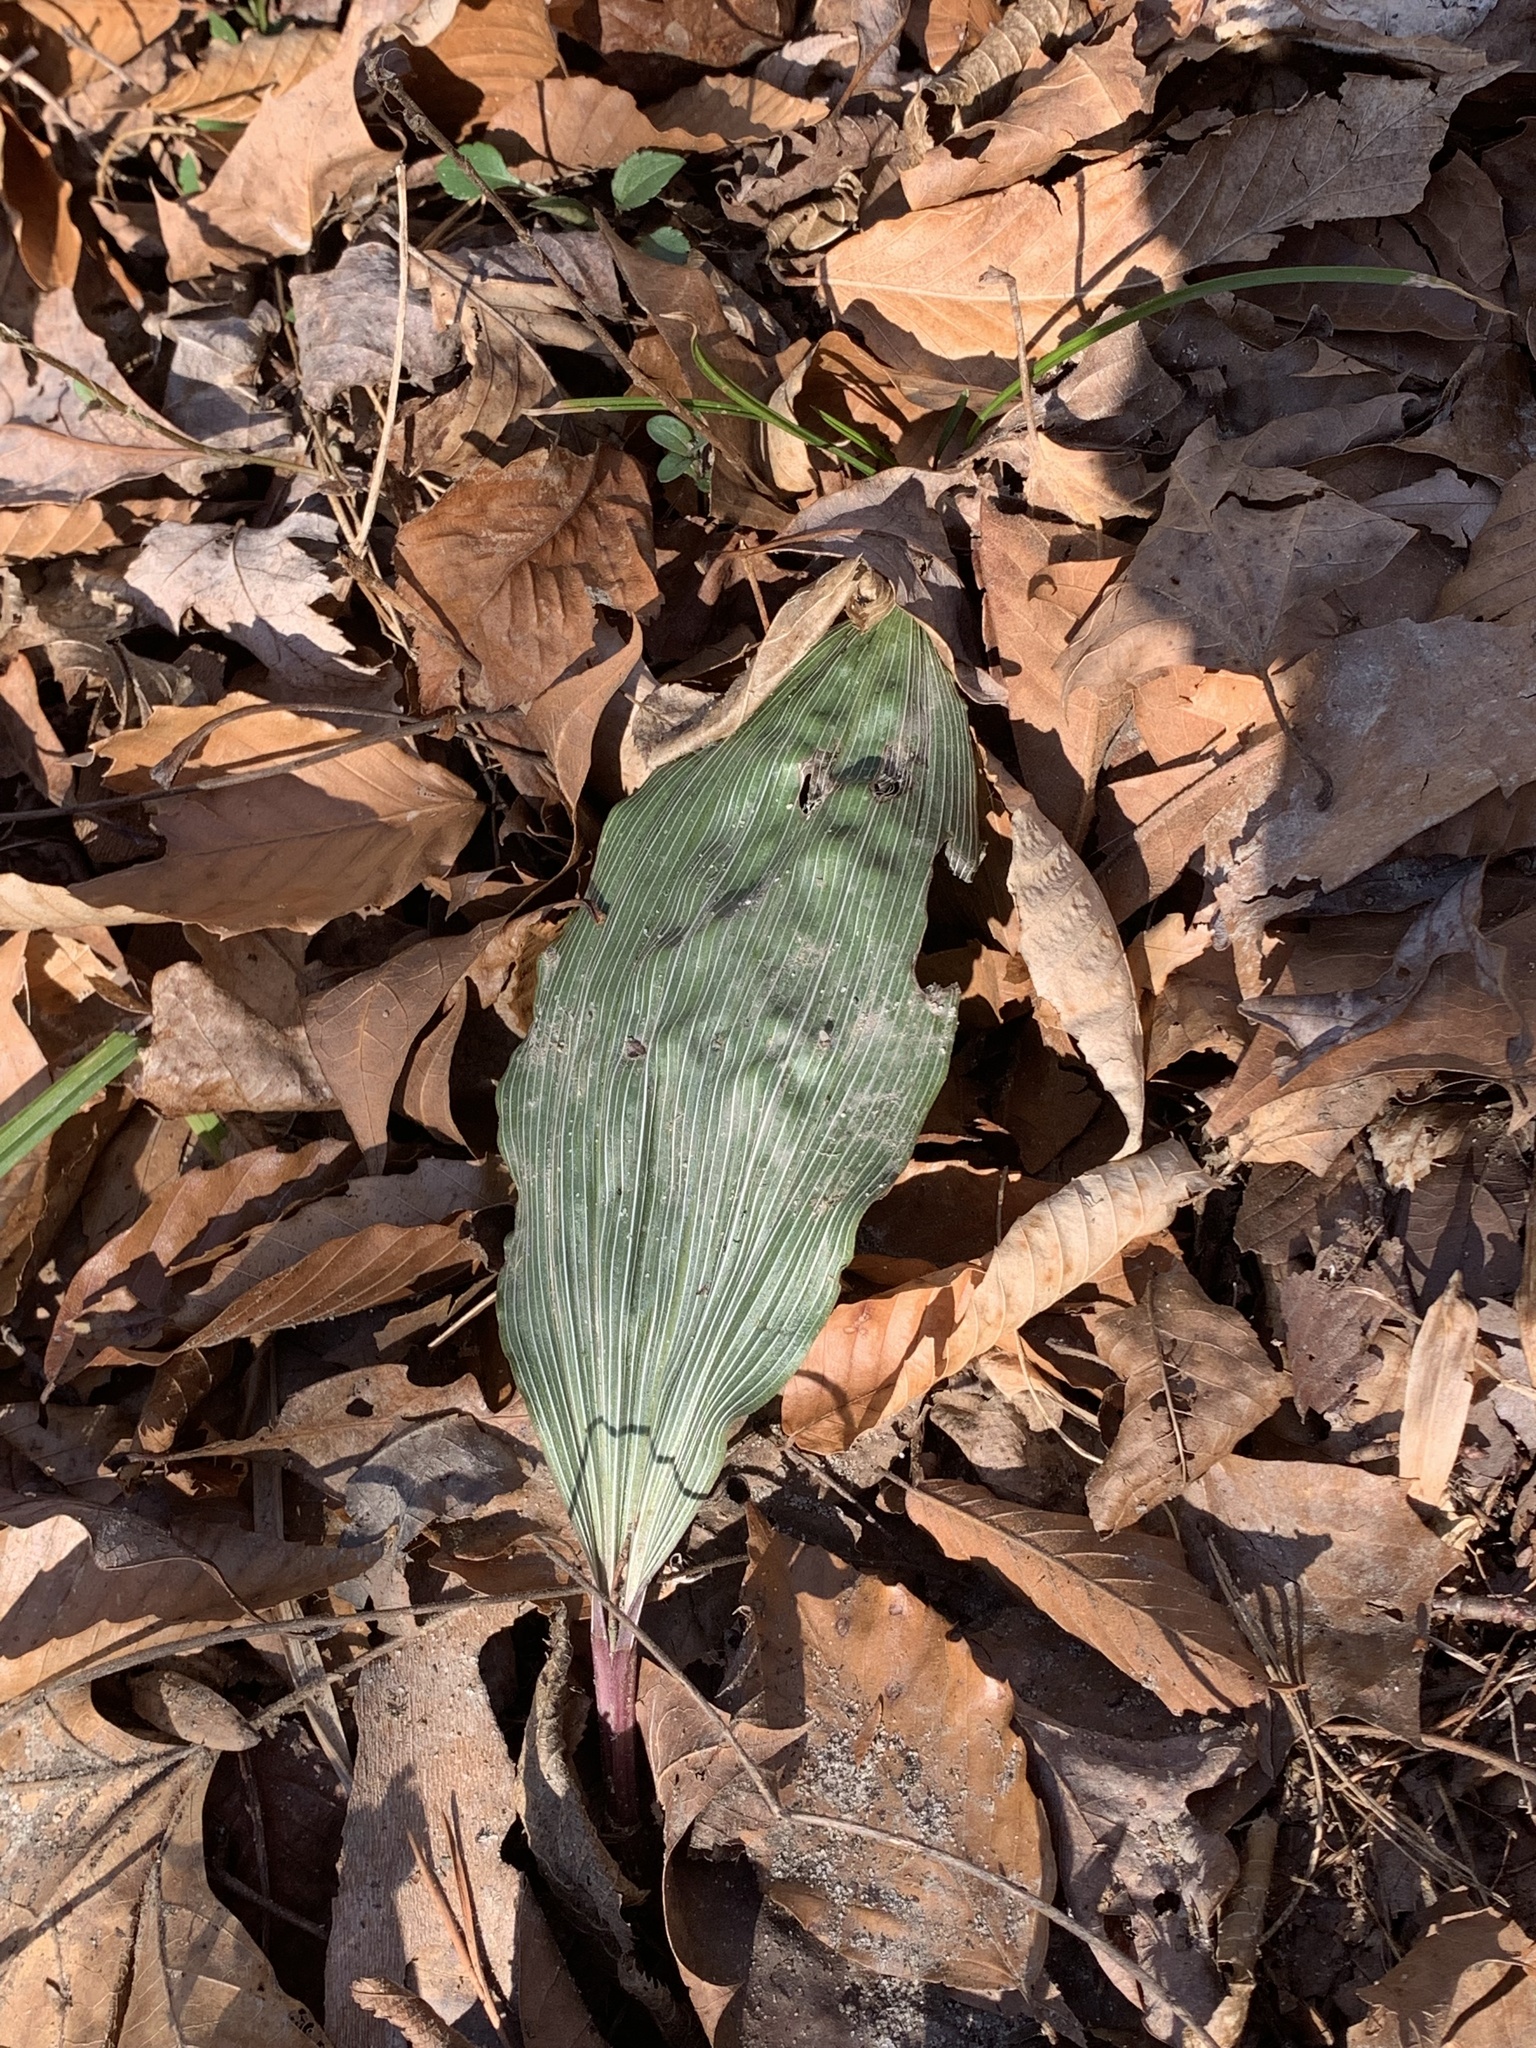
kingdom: Plantae
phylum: Tracheophyta
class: Liliopsida
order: Asparagales
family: Orchidaceae
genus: Aplectrum
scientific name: Aplectrum hyemale
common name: Adam-and-eve
